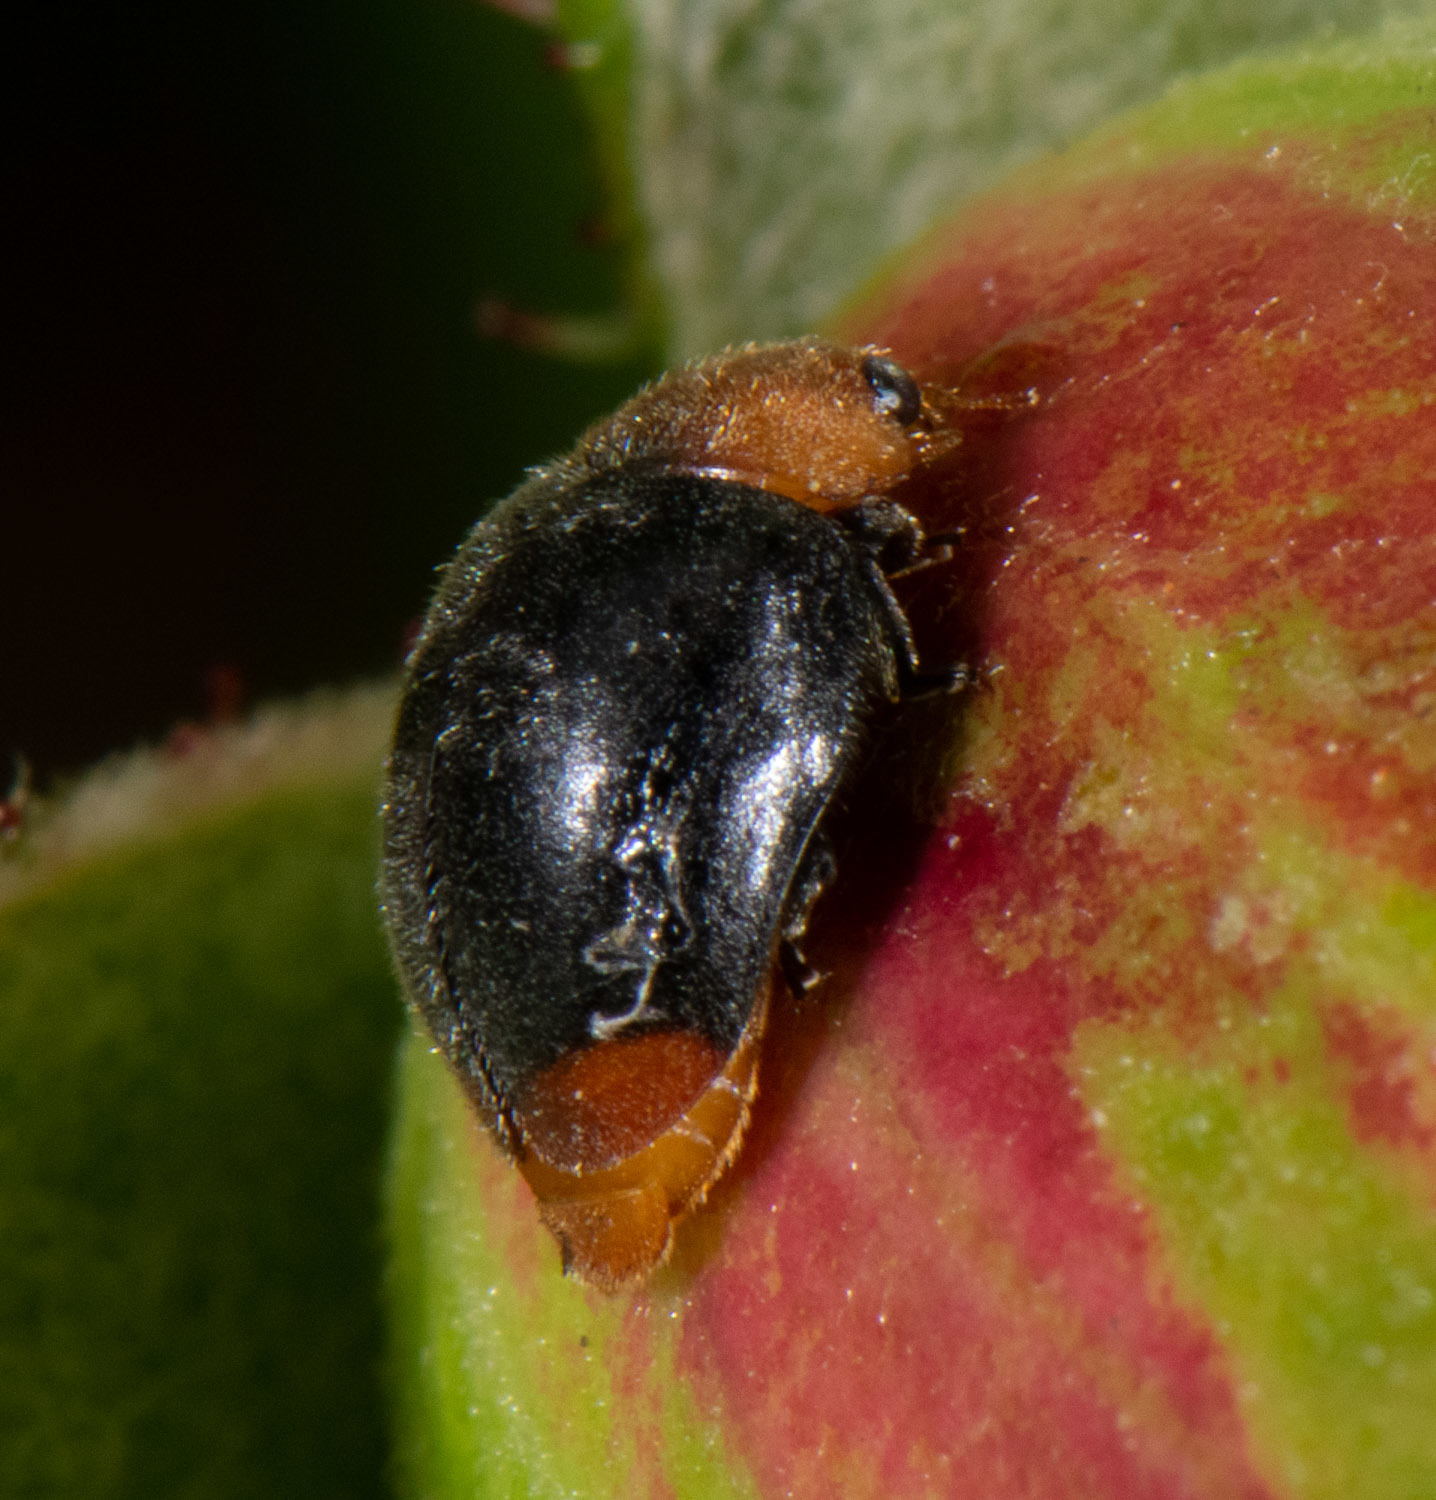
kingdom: Animalia
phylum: Arthropoda
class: Insecta
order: Coleoptera
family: Coccinellidae
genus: Cryptolaemus
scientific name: Cryptolaemus montrouzieri
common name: Mealybug destroyer
